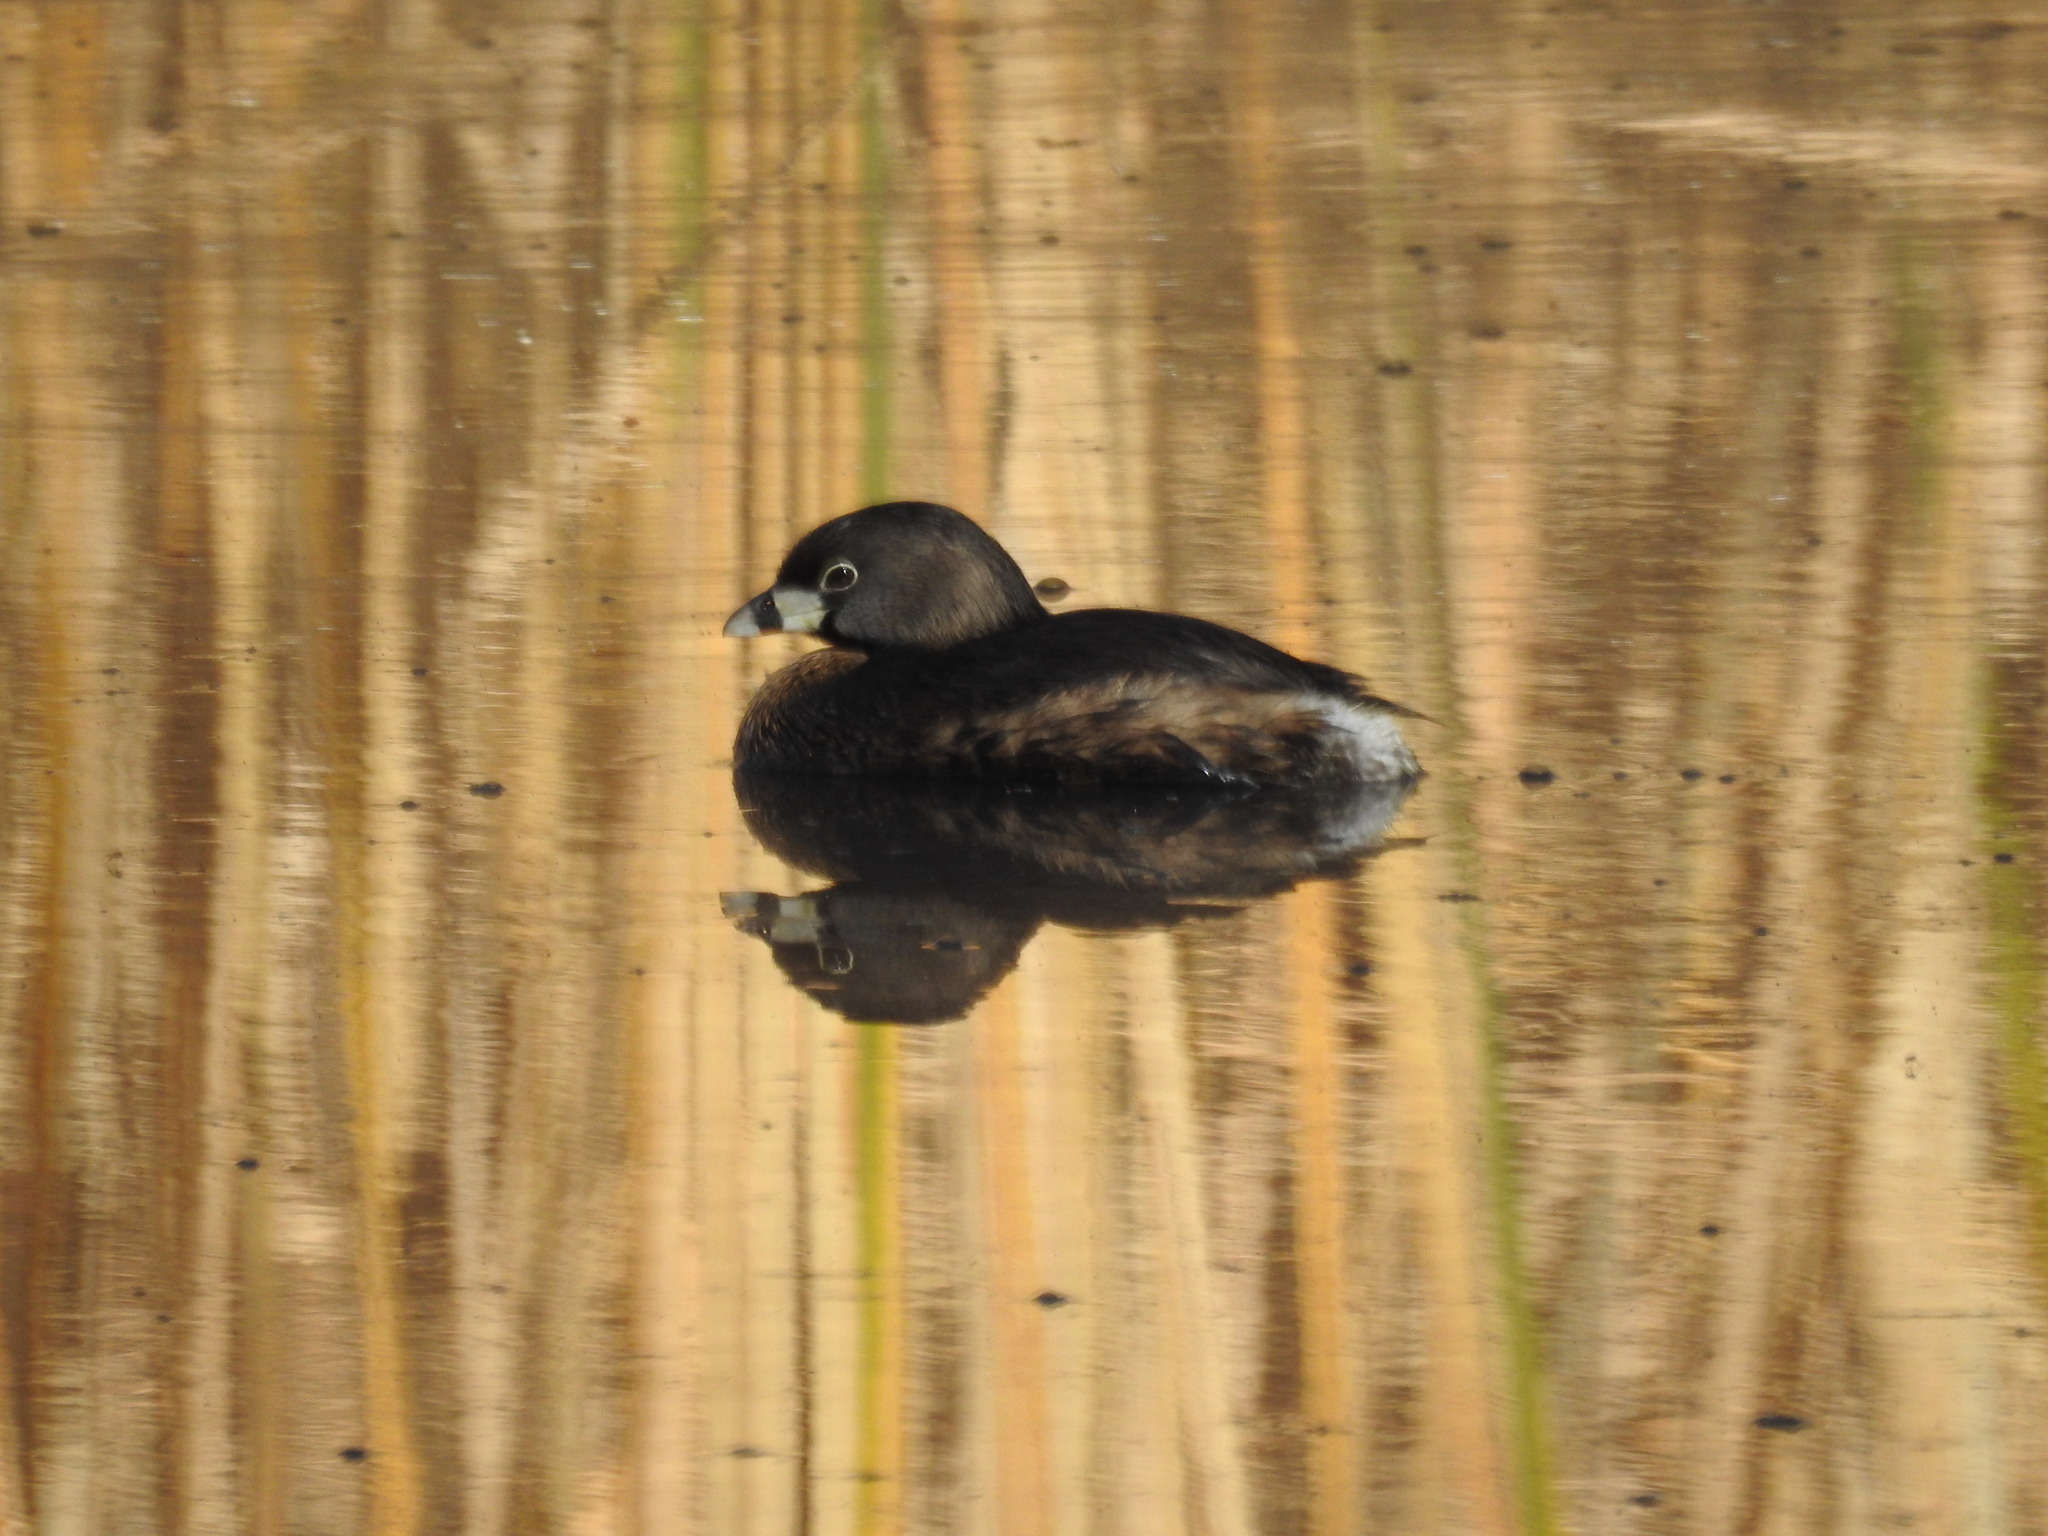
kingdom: Animalia
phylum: Chordata
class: Aves
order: Podicipediformes
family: Podicipedidae
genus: Podilymbus
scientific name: Podilymbus podiceps
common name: Pied-billed grebe
